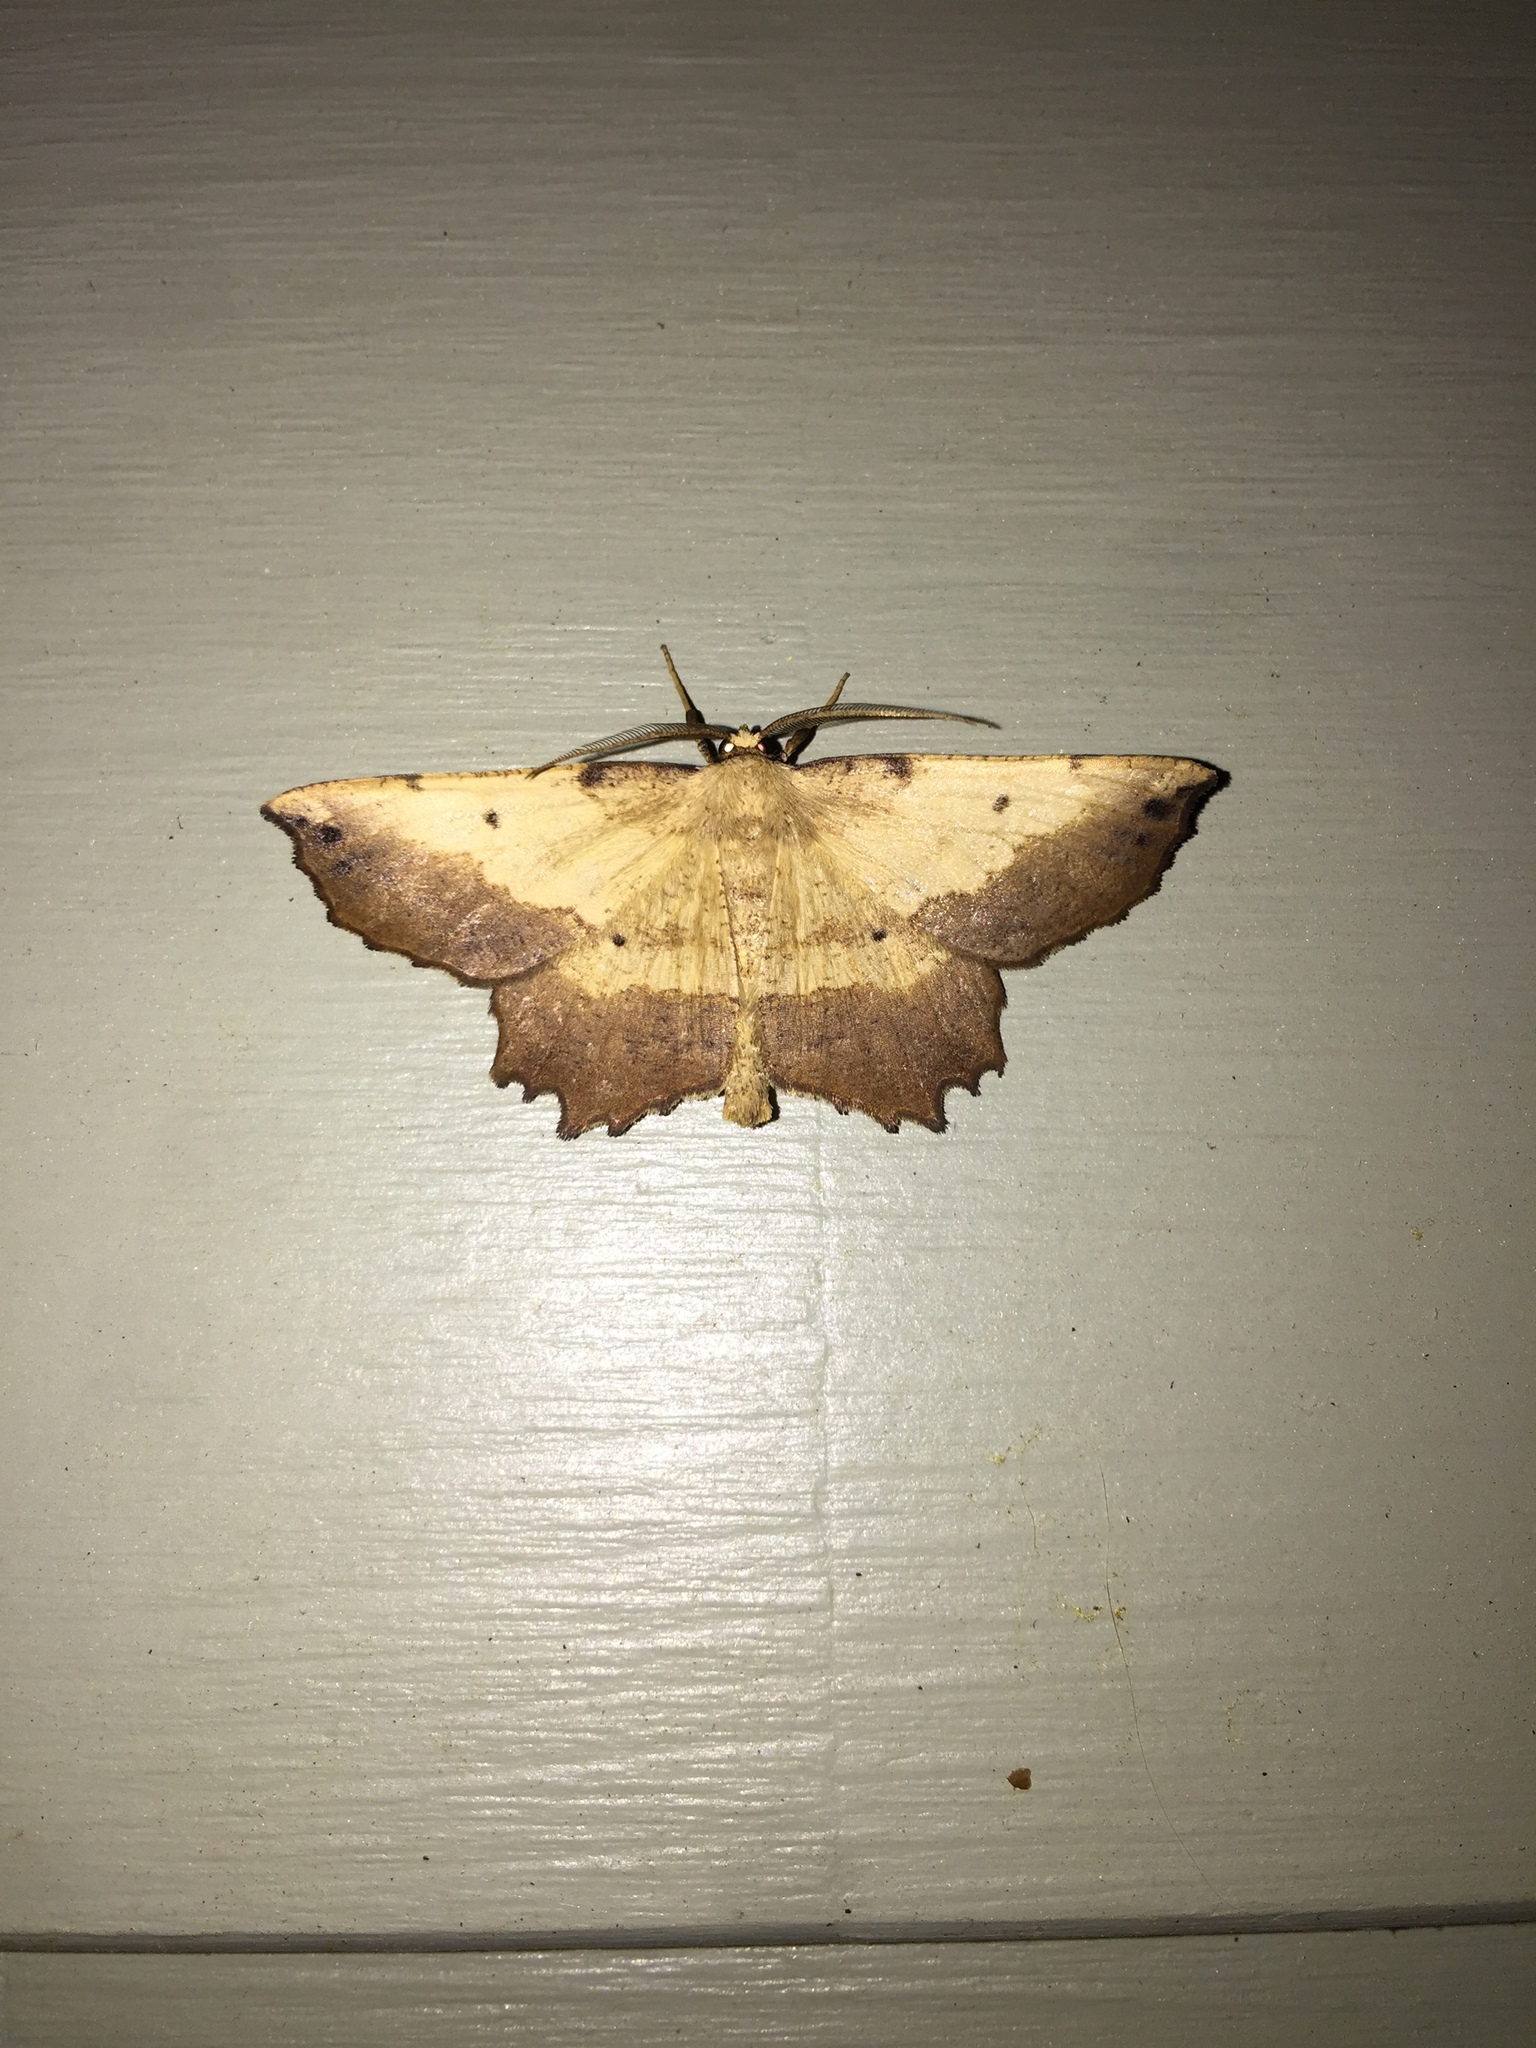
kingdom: Animalia
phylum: Arthropoda
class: Insecta
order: Lepidoptera
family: Geometridae
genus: Euchlaena
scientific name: Euchlaena serrata
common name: Saw wing
